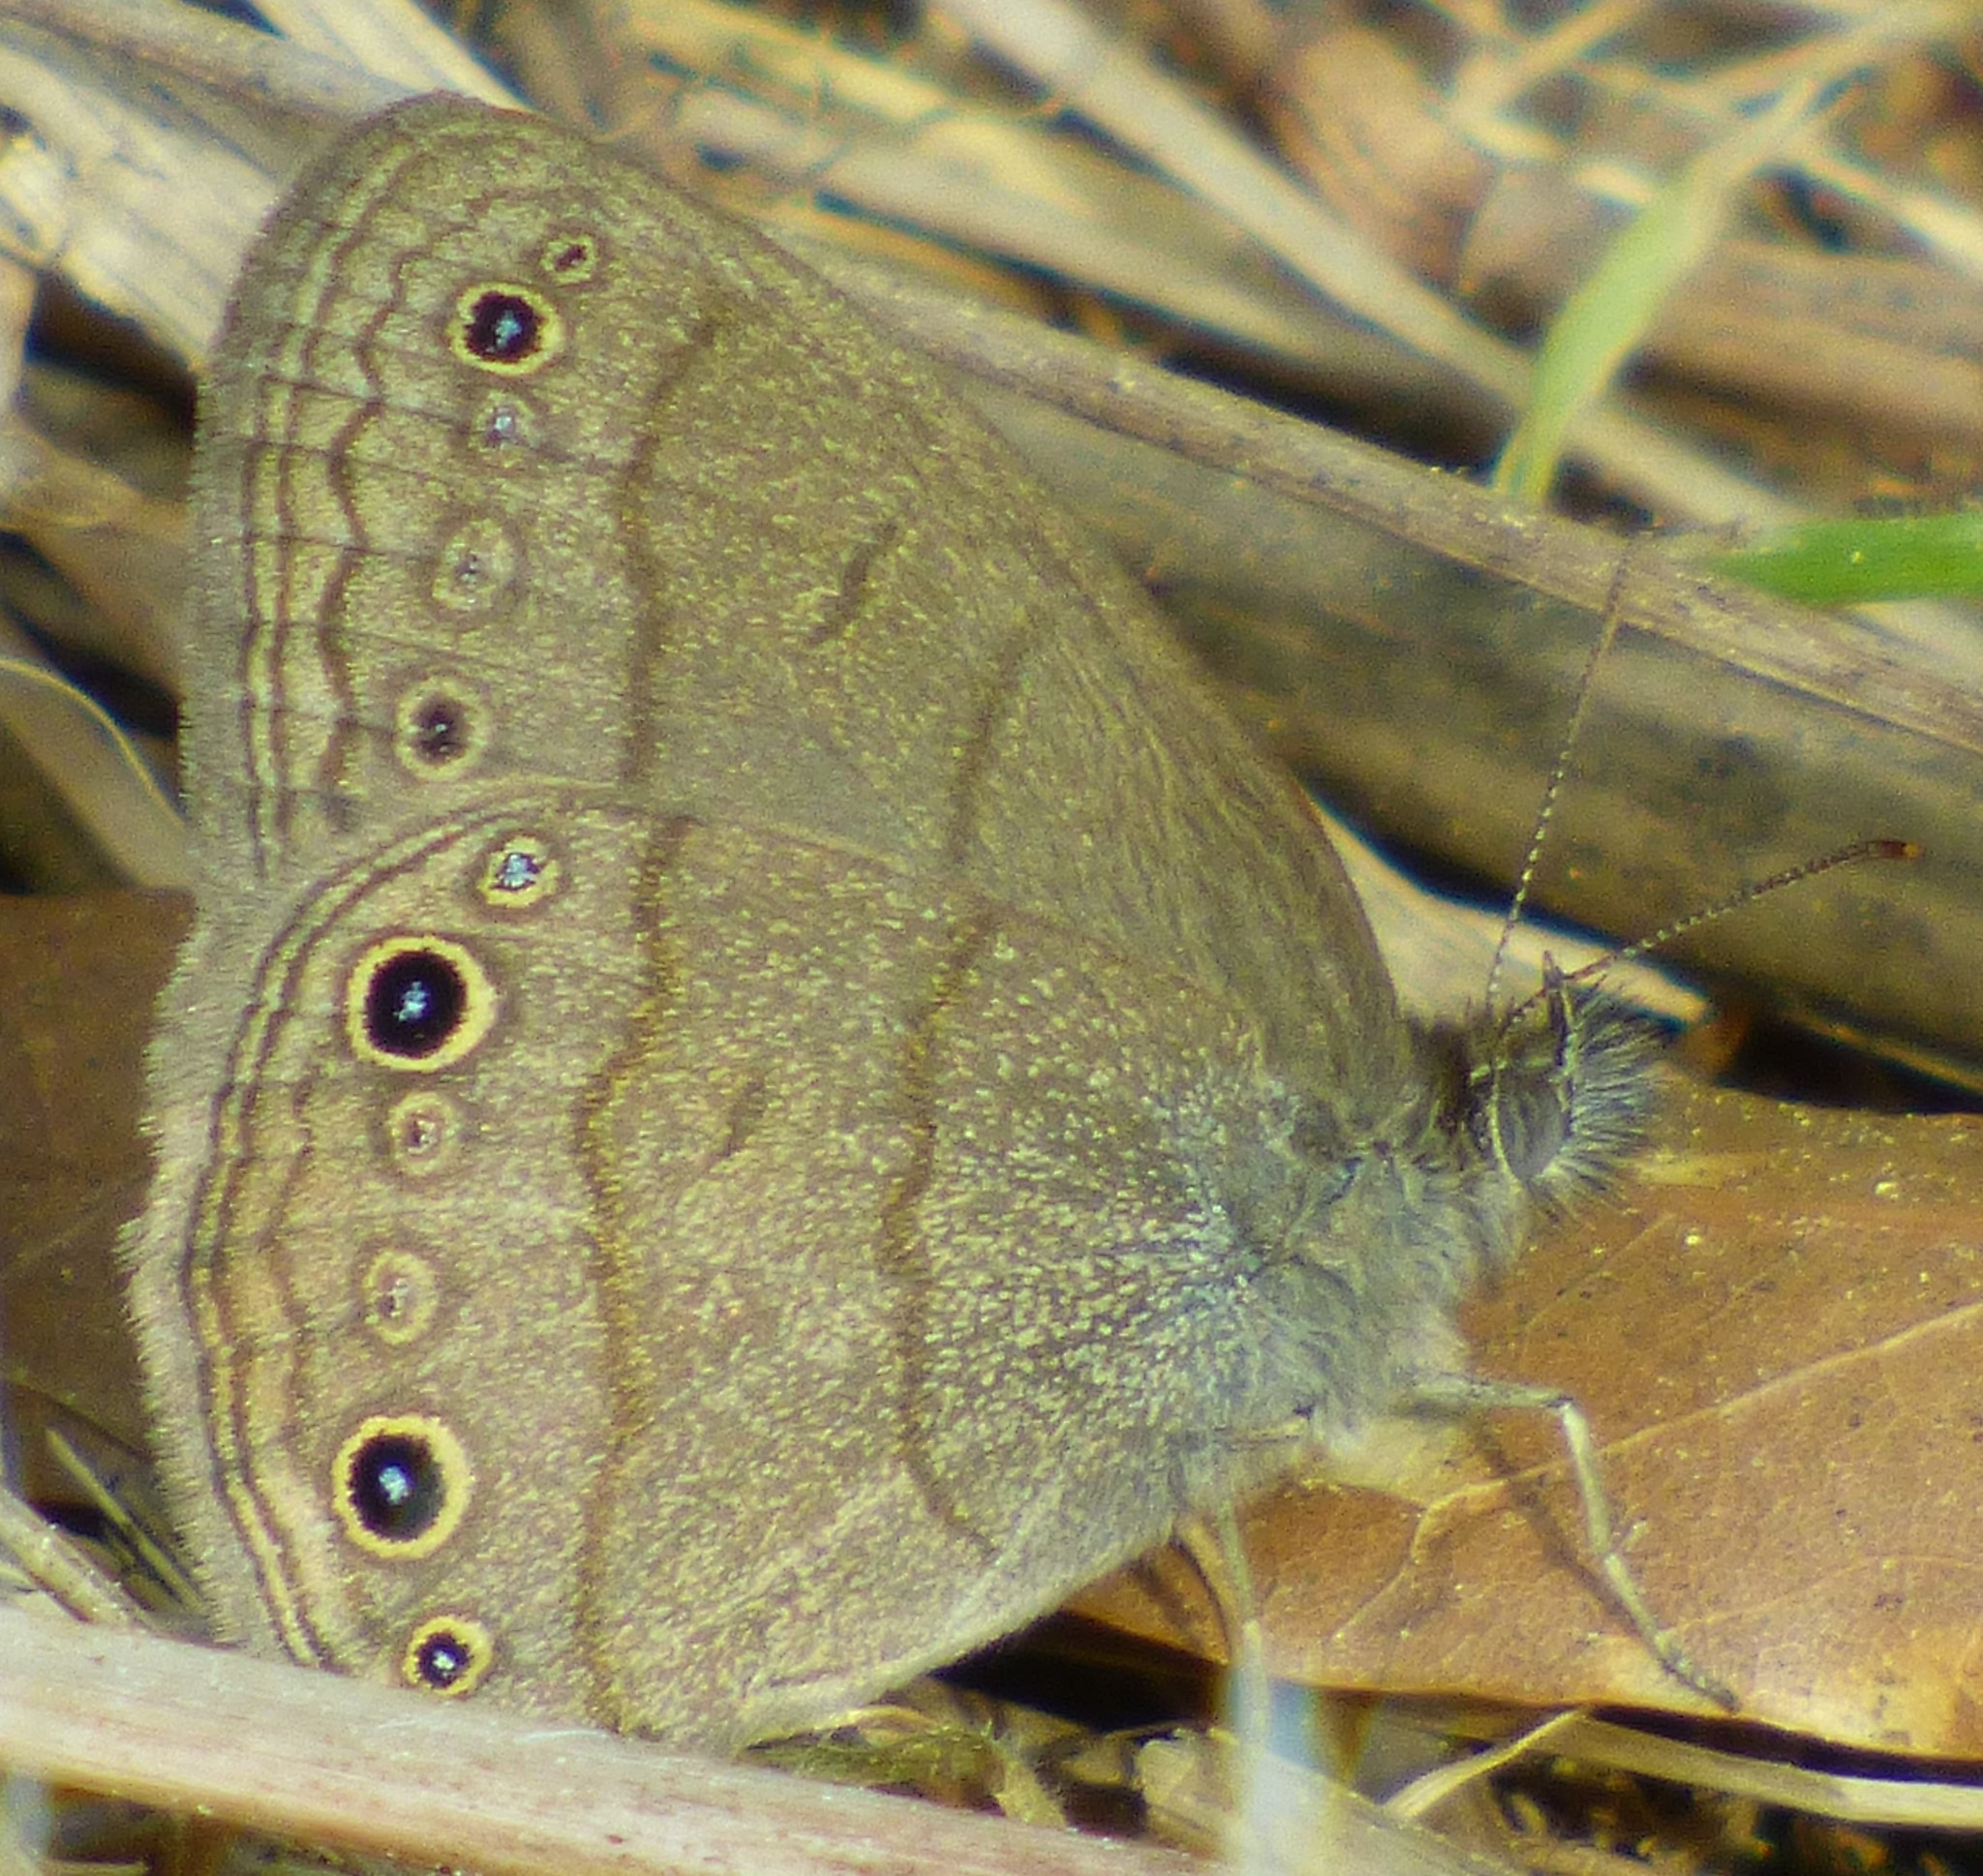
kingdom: Animalia
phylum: Arthropoda
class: Insecta
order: Lepidoptera
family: Nymphalidae
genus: Hermeuptychia
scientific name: Hermeuptychia hermes
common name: Hermes satyr
